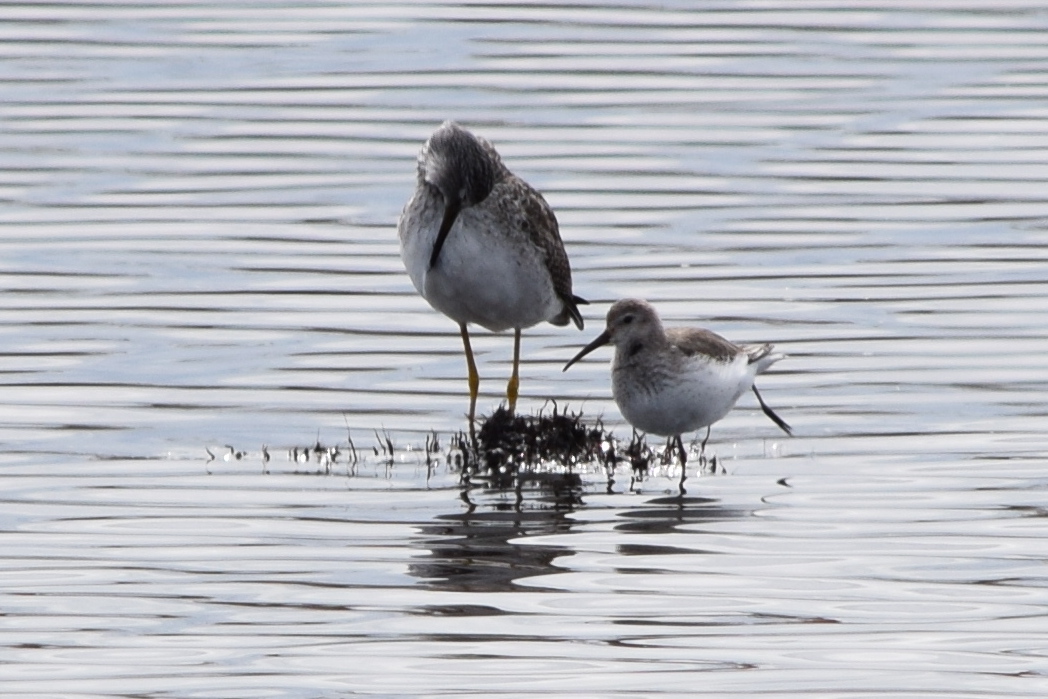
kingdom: Animalia
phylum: Chordata
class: Aves
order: Charadriiformes
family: Scolopacidae
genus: Calidris
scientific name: Calidris alpina
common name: Dunlin
